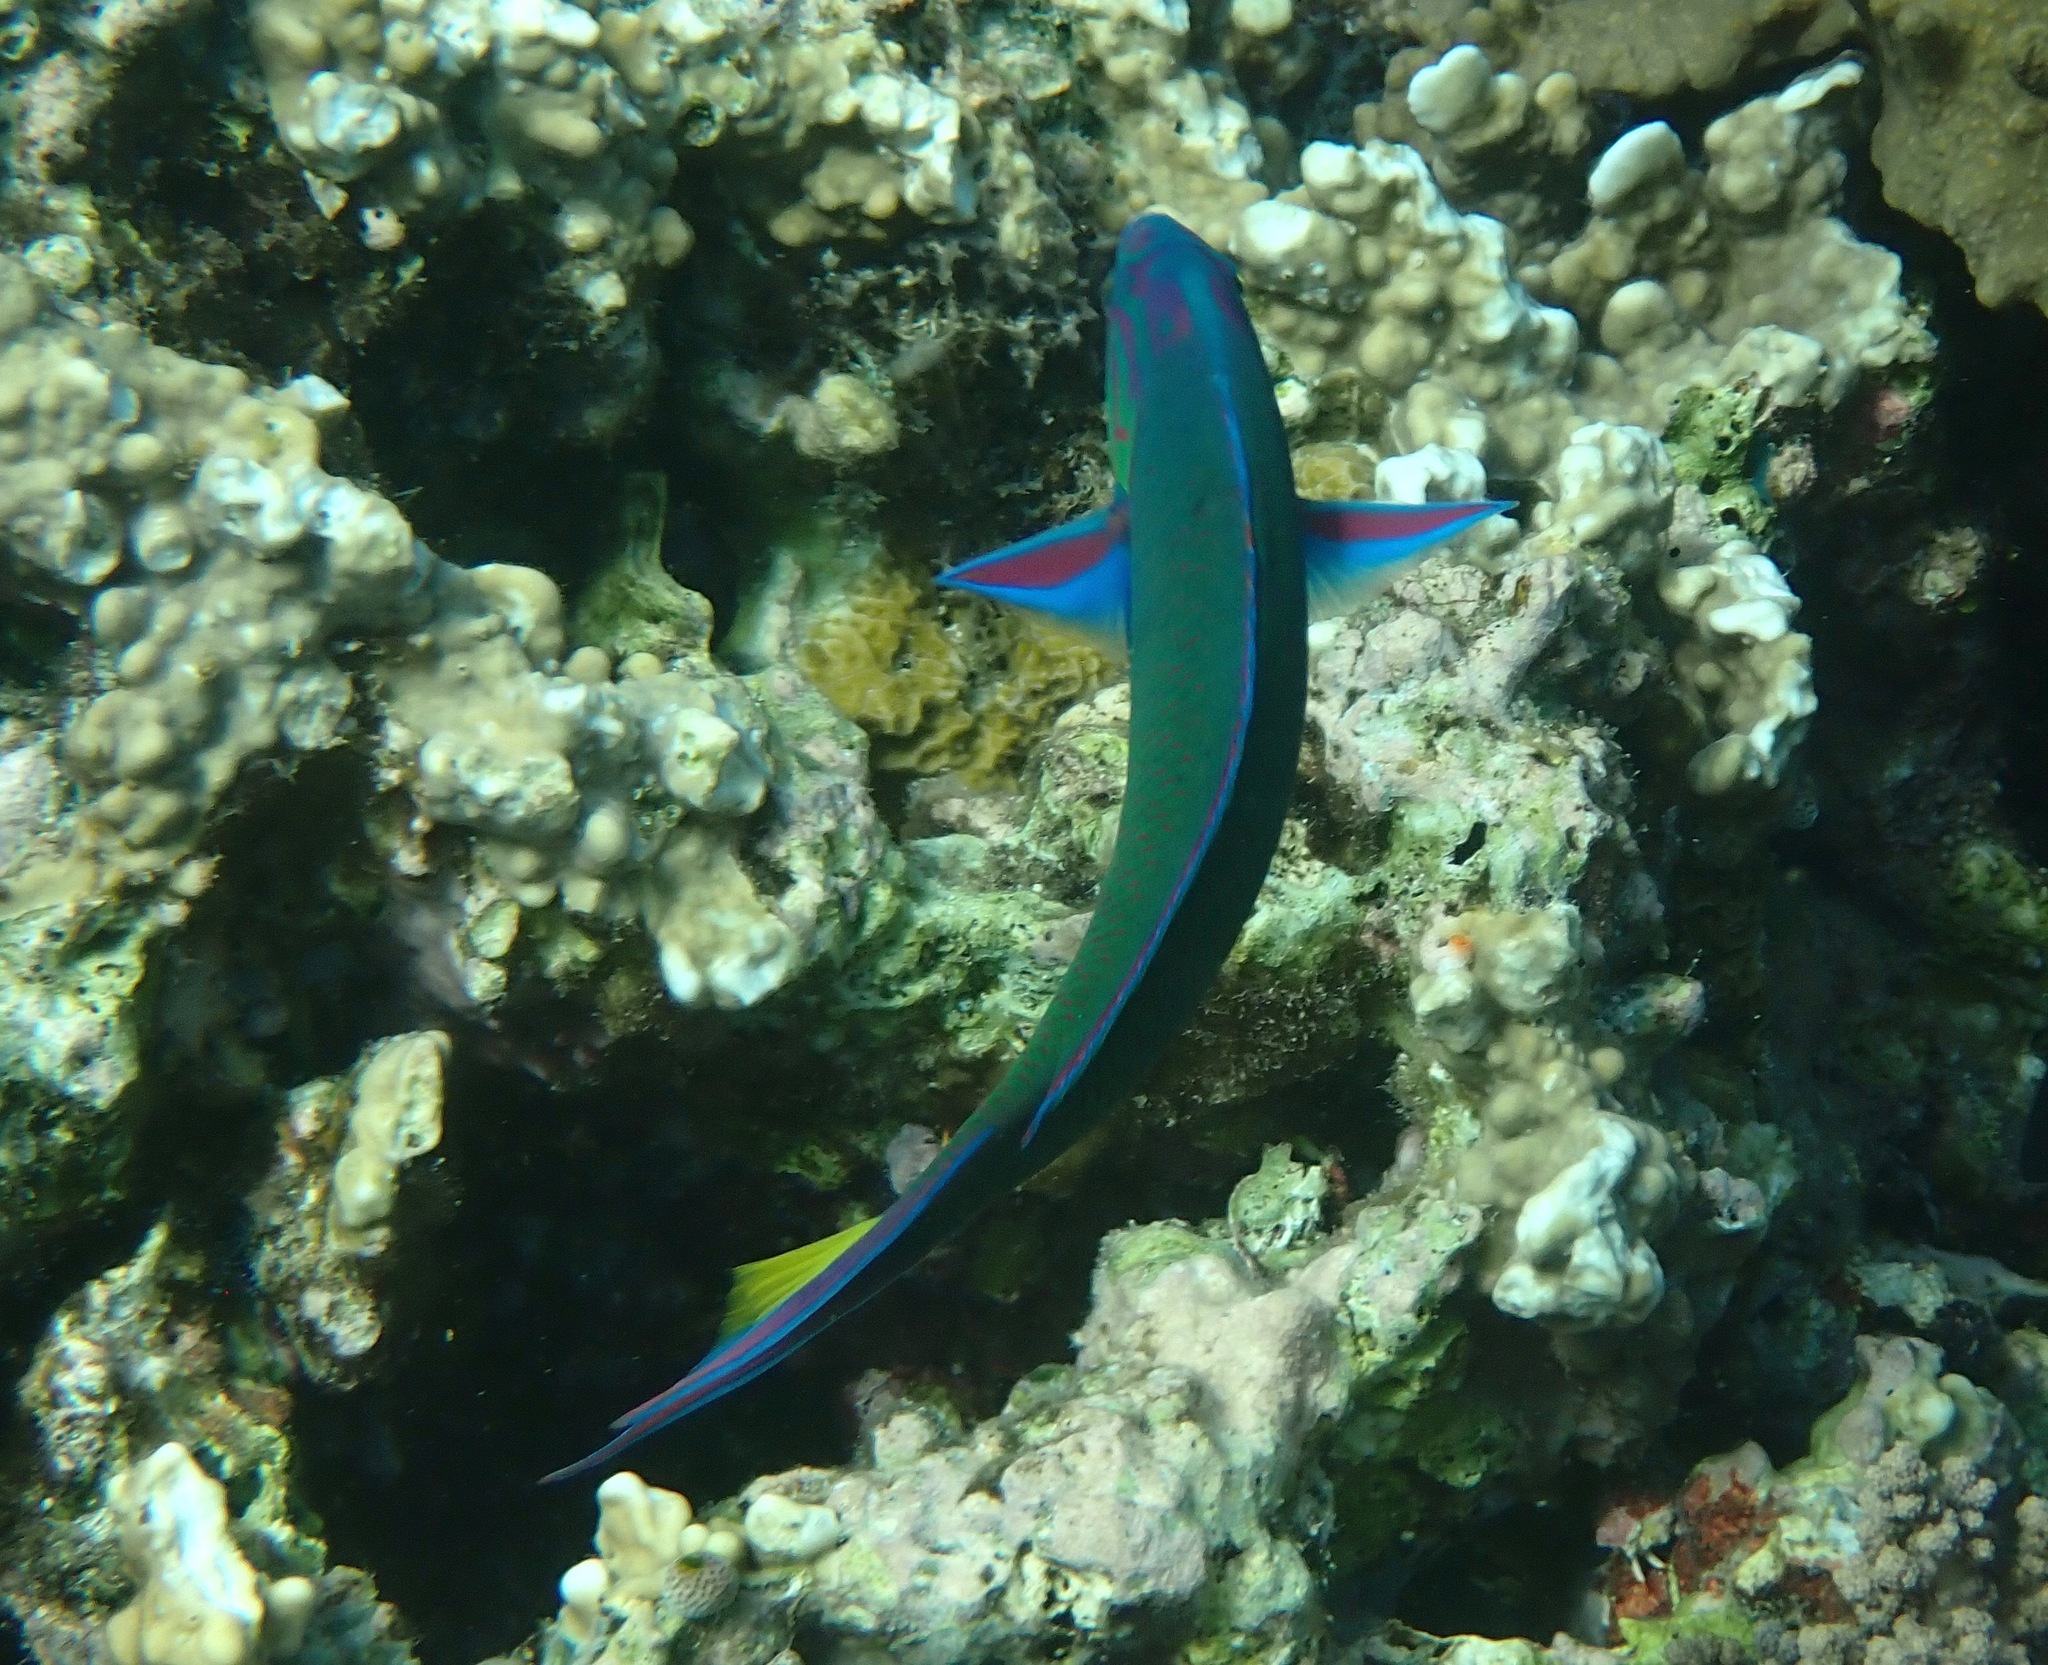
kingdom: Animalia
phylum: Chordata
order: Perciformes
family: Labridae
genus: Thalassoma
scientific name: Thalassoma lunare
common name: Blue wrasse
